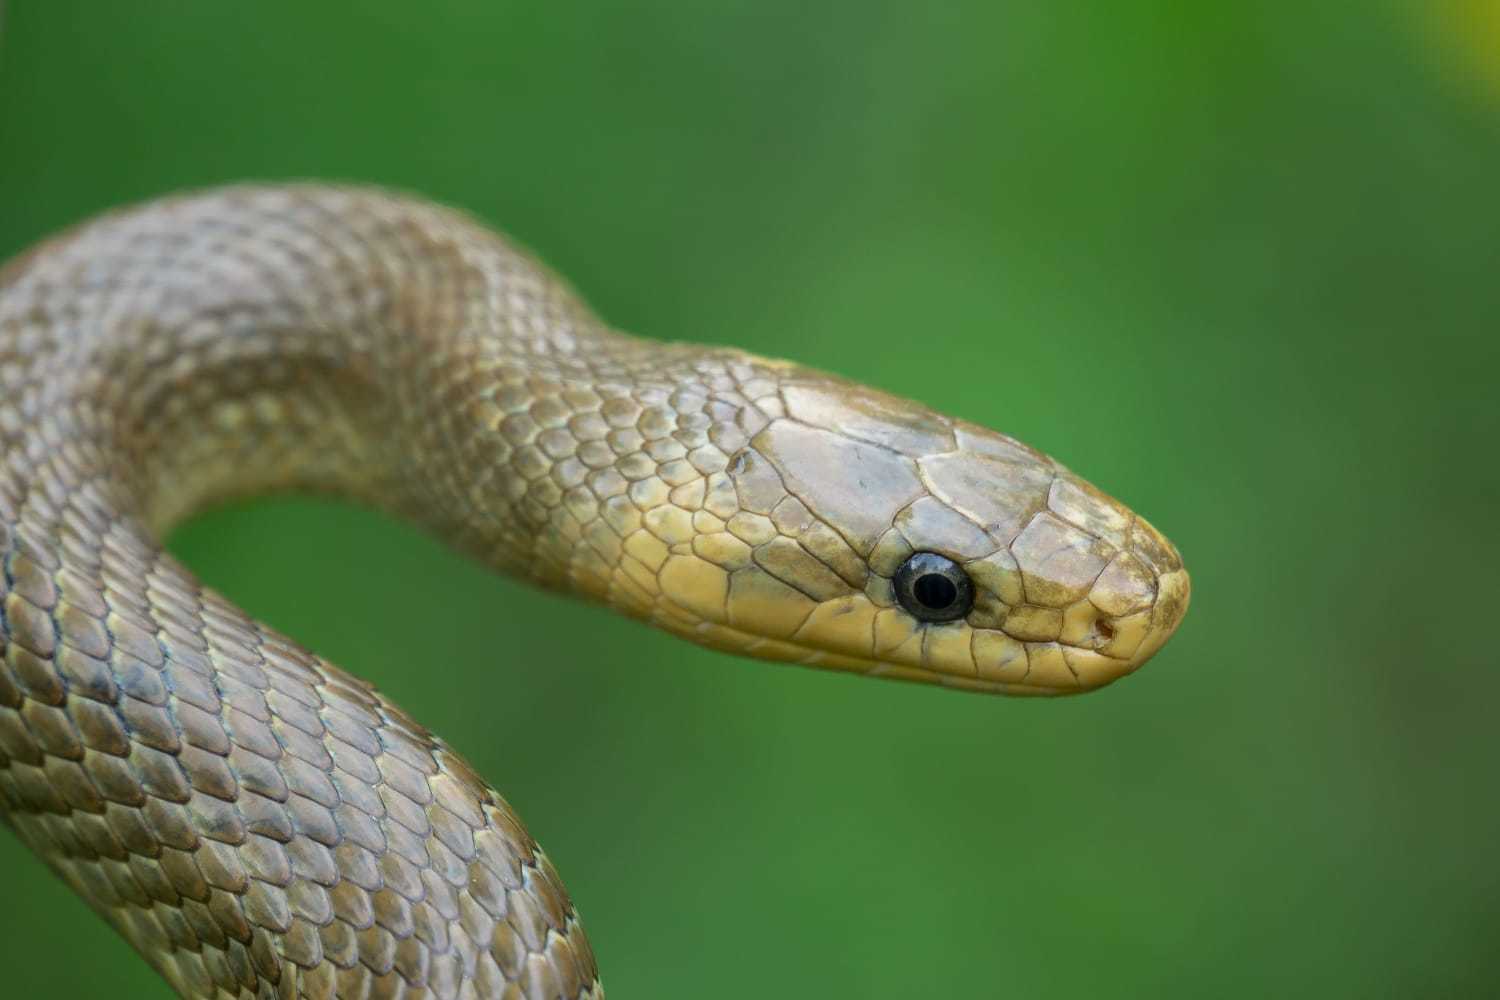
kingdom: Animalia
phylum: Chordata
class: Squamata
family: Colubridae
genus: Zamenis
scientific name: Zamenis longissimus
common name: Aesculapean snake
